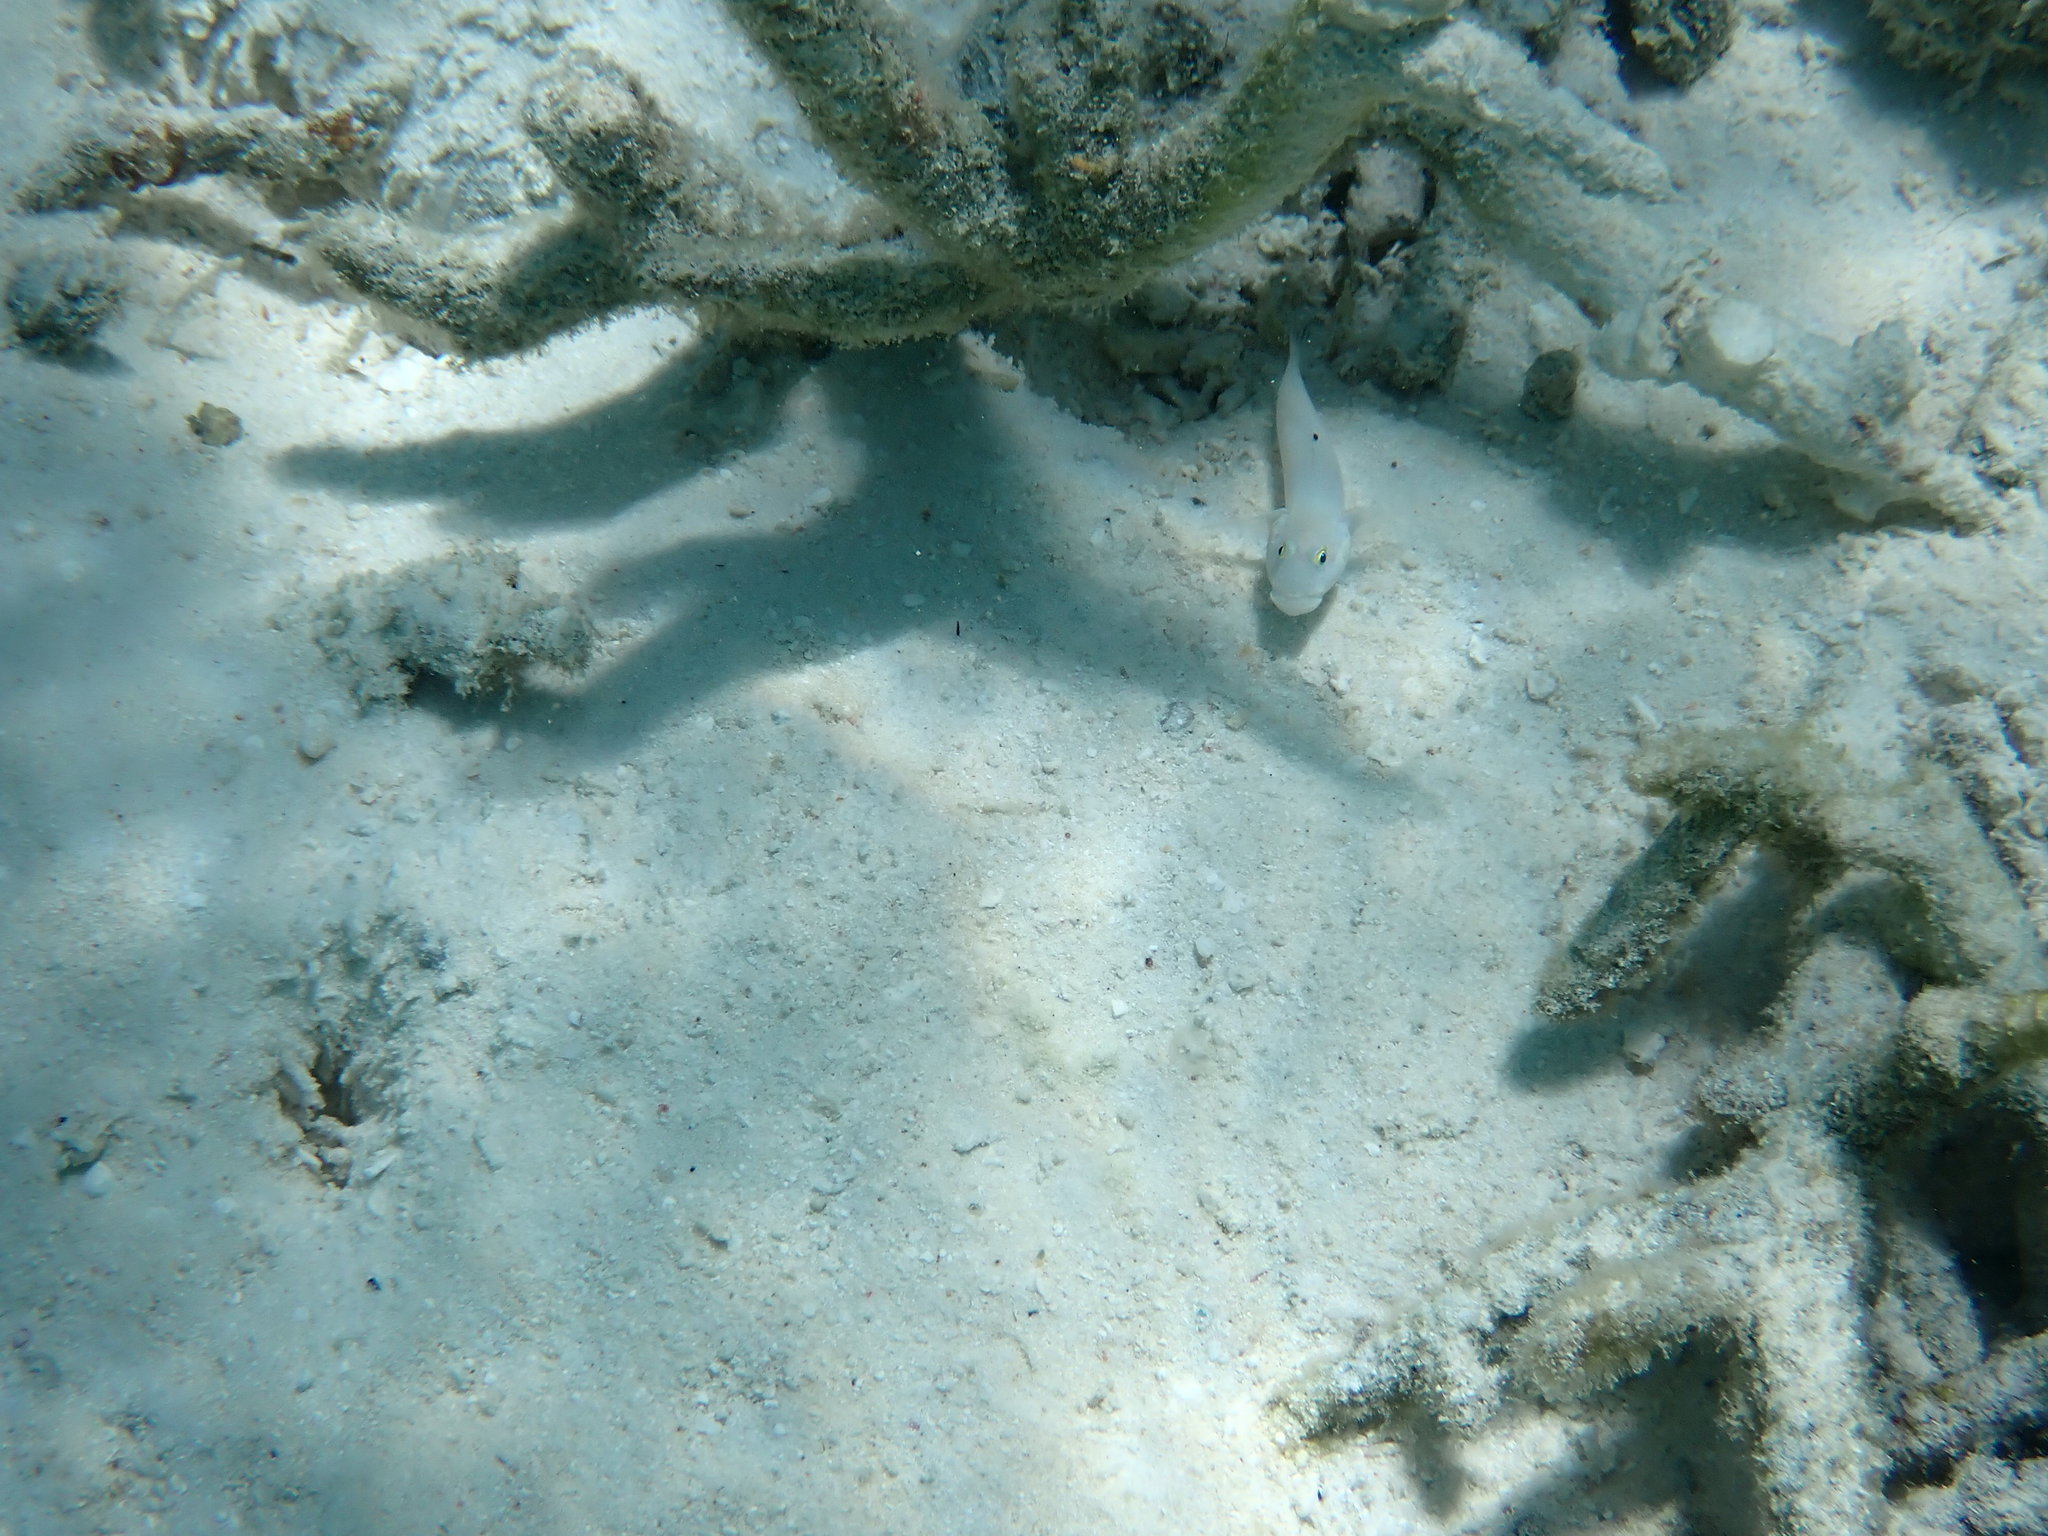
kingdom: Animalia
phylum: Chordata
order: Perciformes
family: Gobiidae
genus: Valenciennea
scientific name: Valenciennea sexguttata
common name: Sixspot goby
